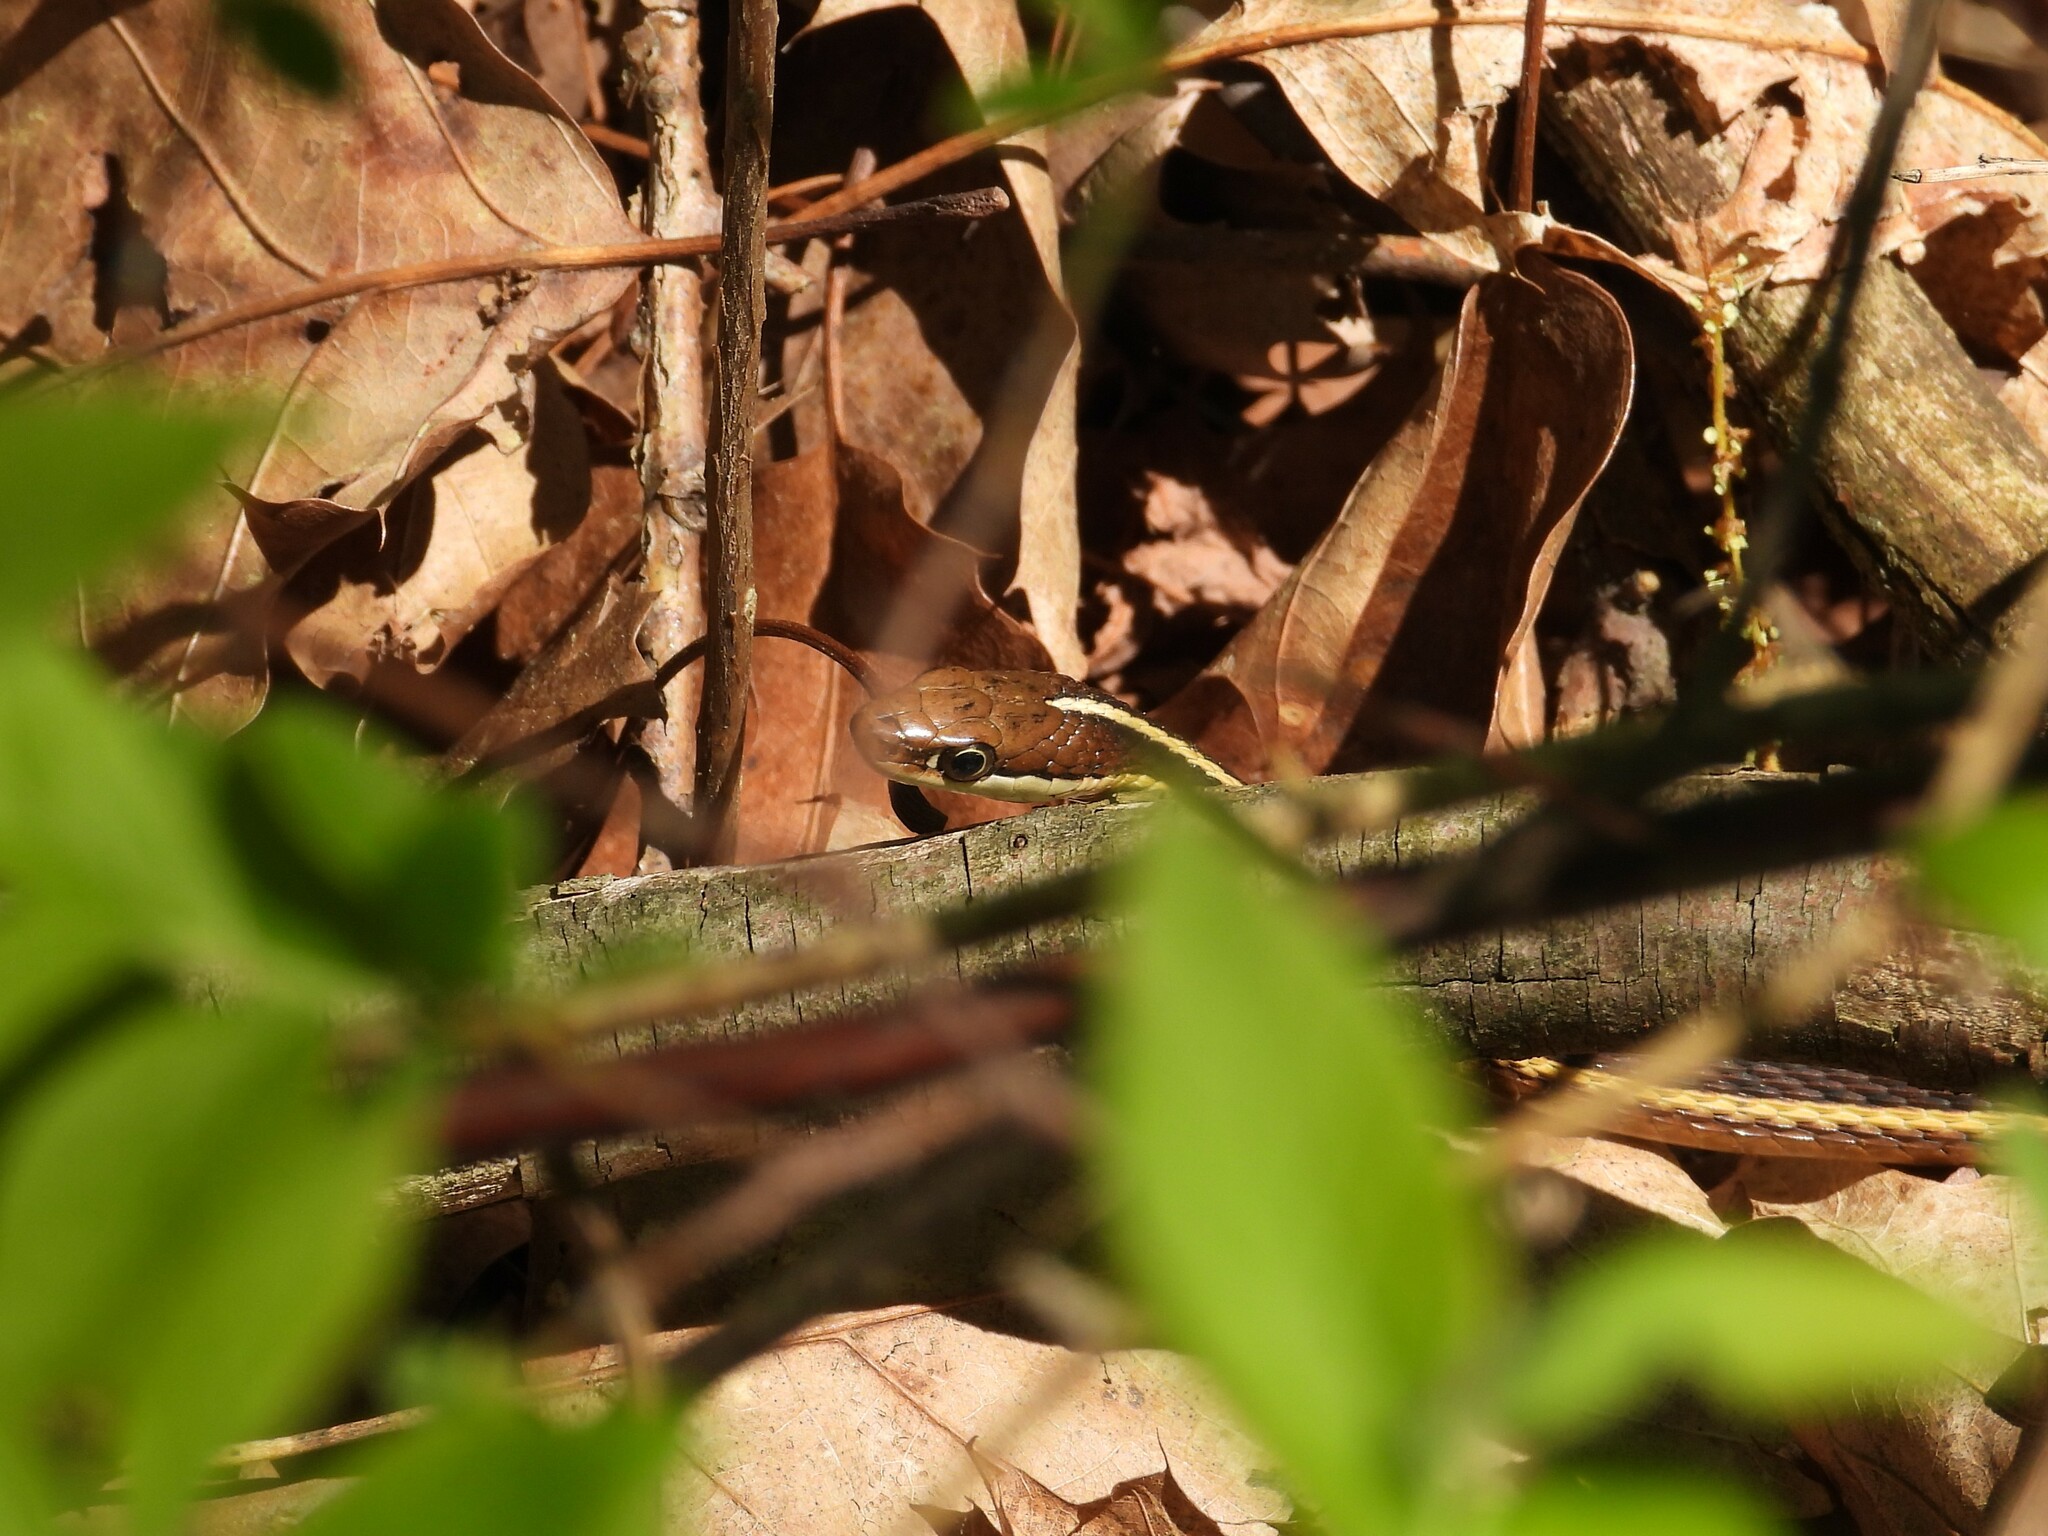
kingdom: Animalia
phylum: Chordata
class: Squamata
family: Colubridae
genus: Thamnophis
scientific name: Thamnophis saurita
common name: Eastern ribbonsnake
